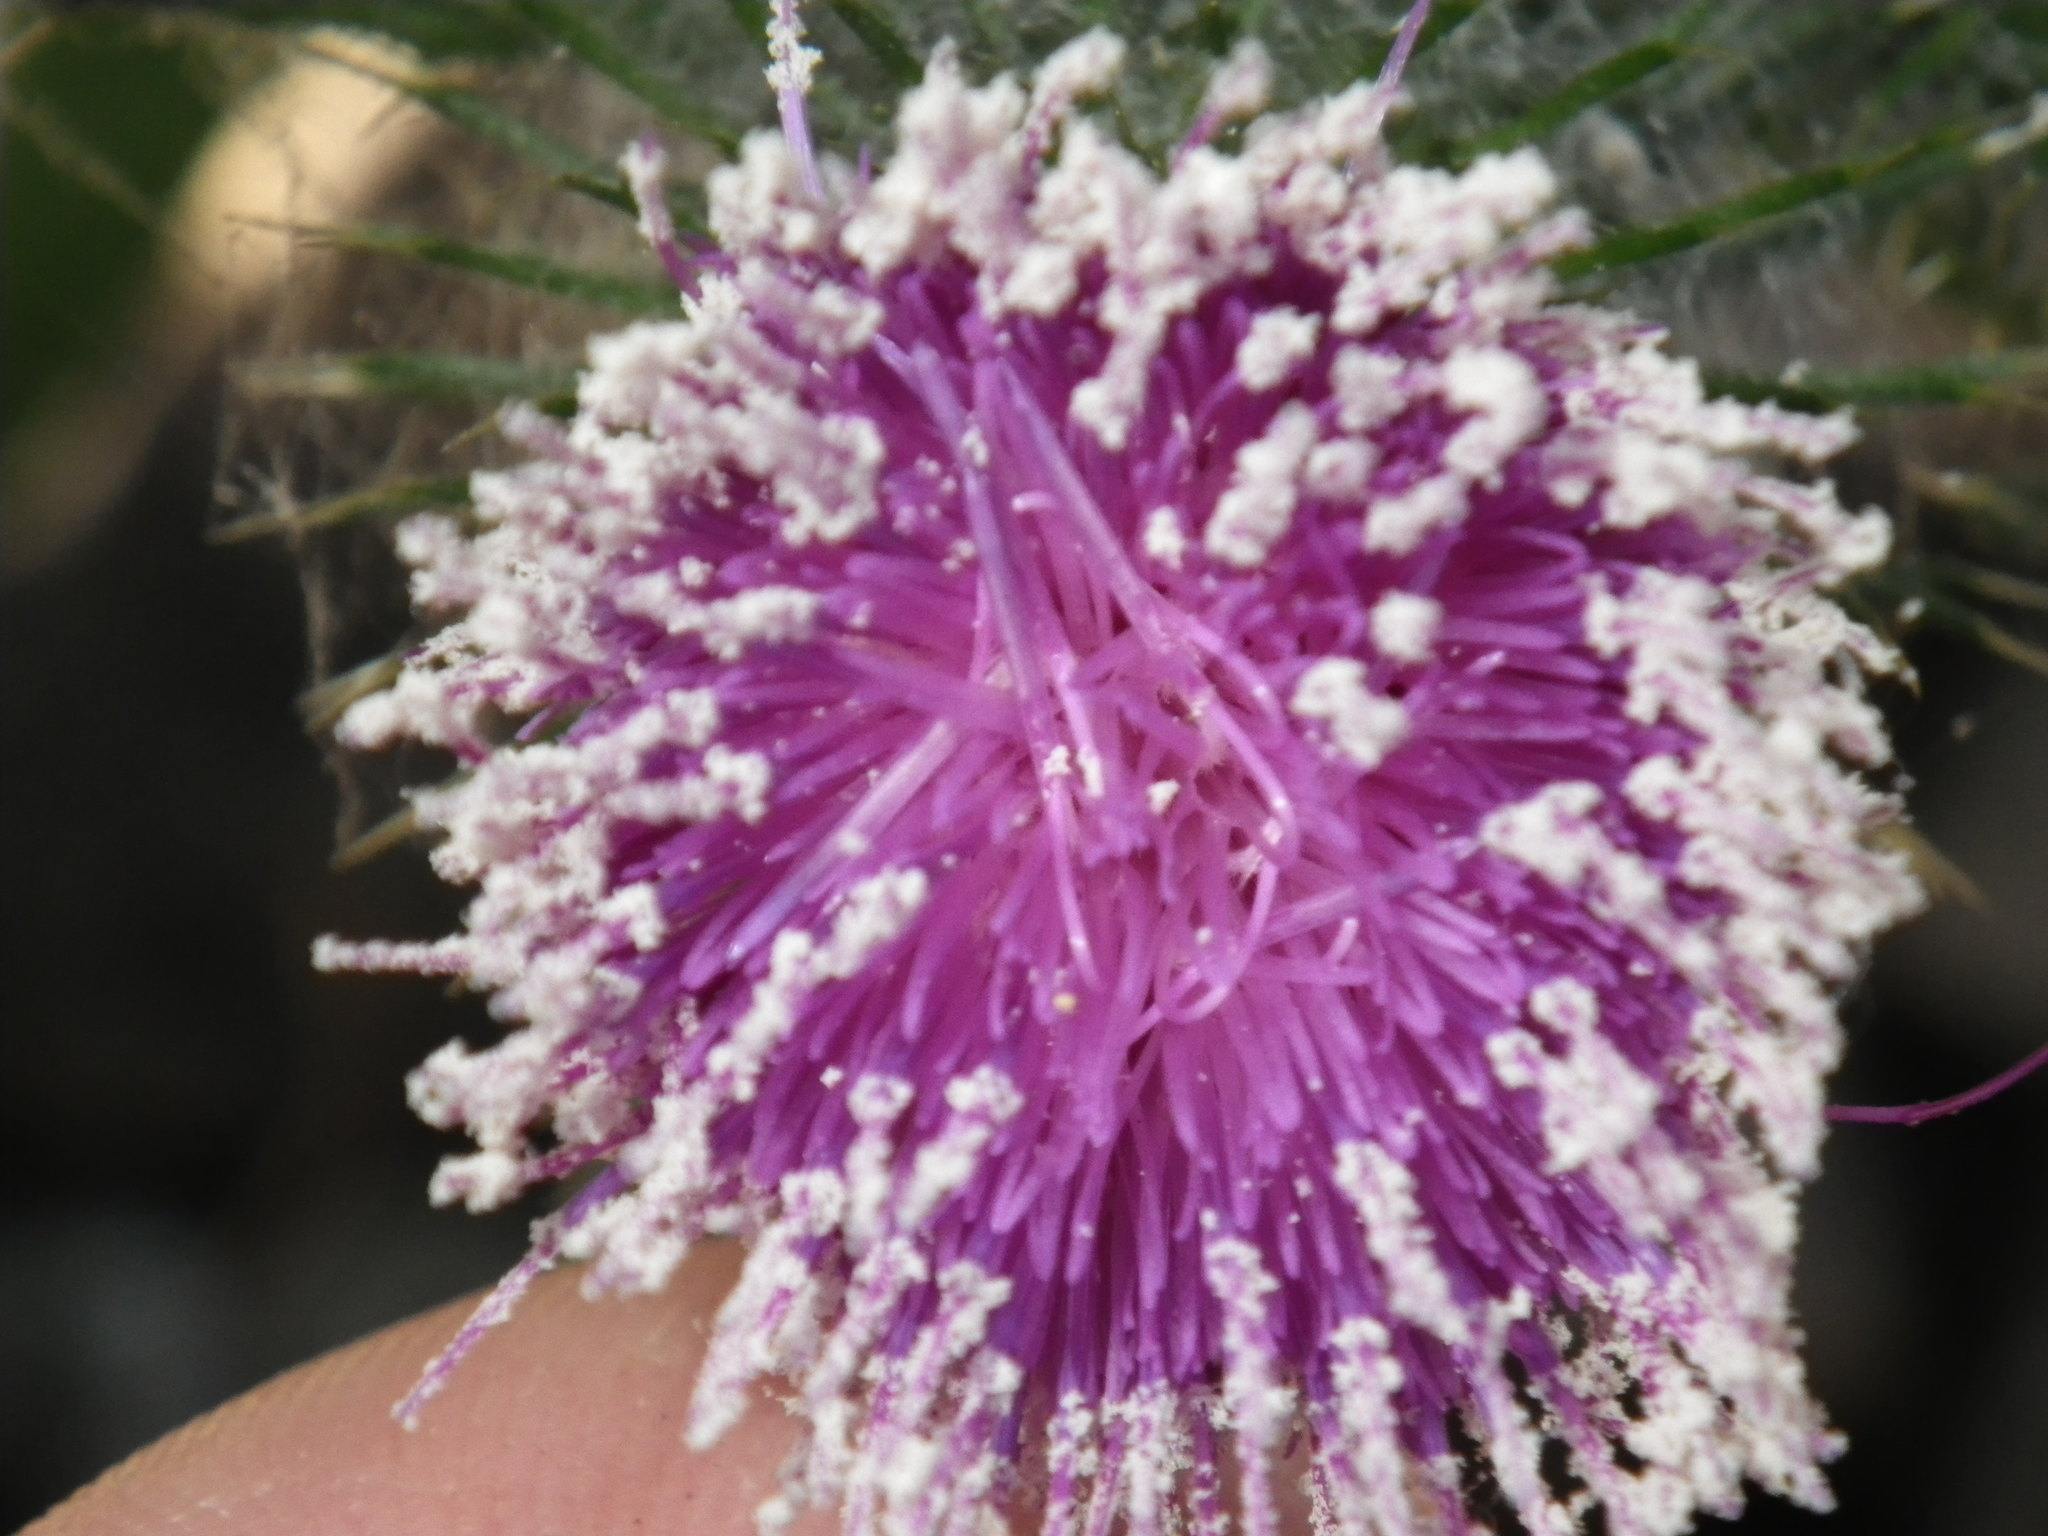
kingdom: Plantae
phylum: Tracheophyta
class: Magnoliopsida
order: Asterales
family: Asteraceae
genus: Cirsium
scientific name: Cirsium vulgare
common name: Bull thistle
